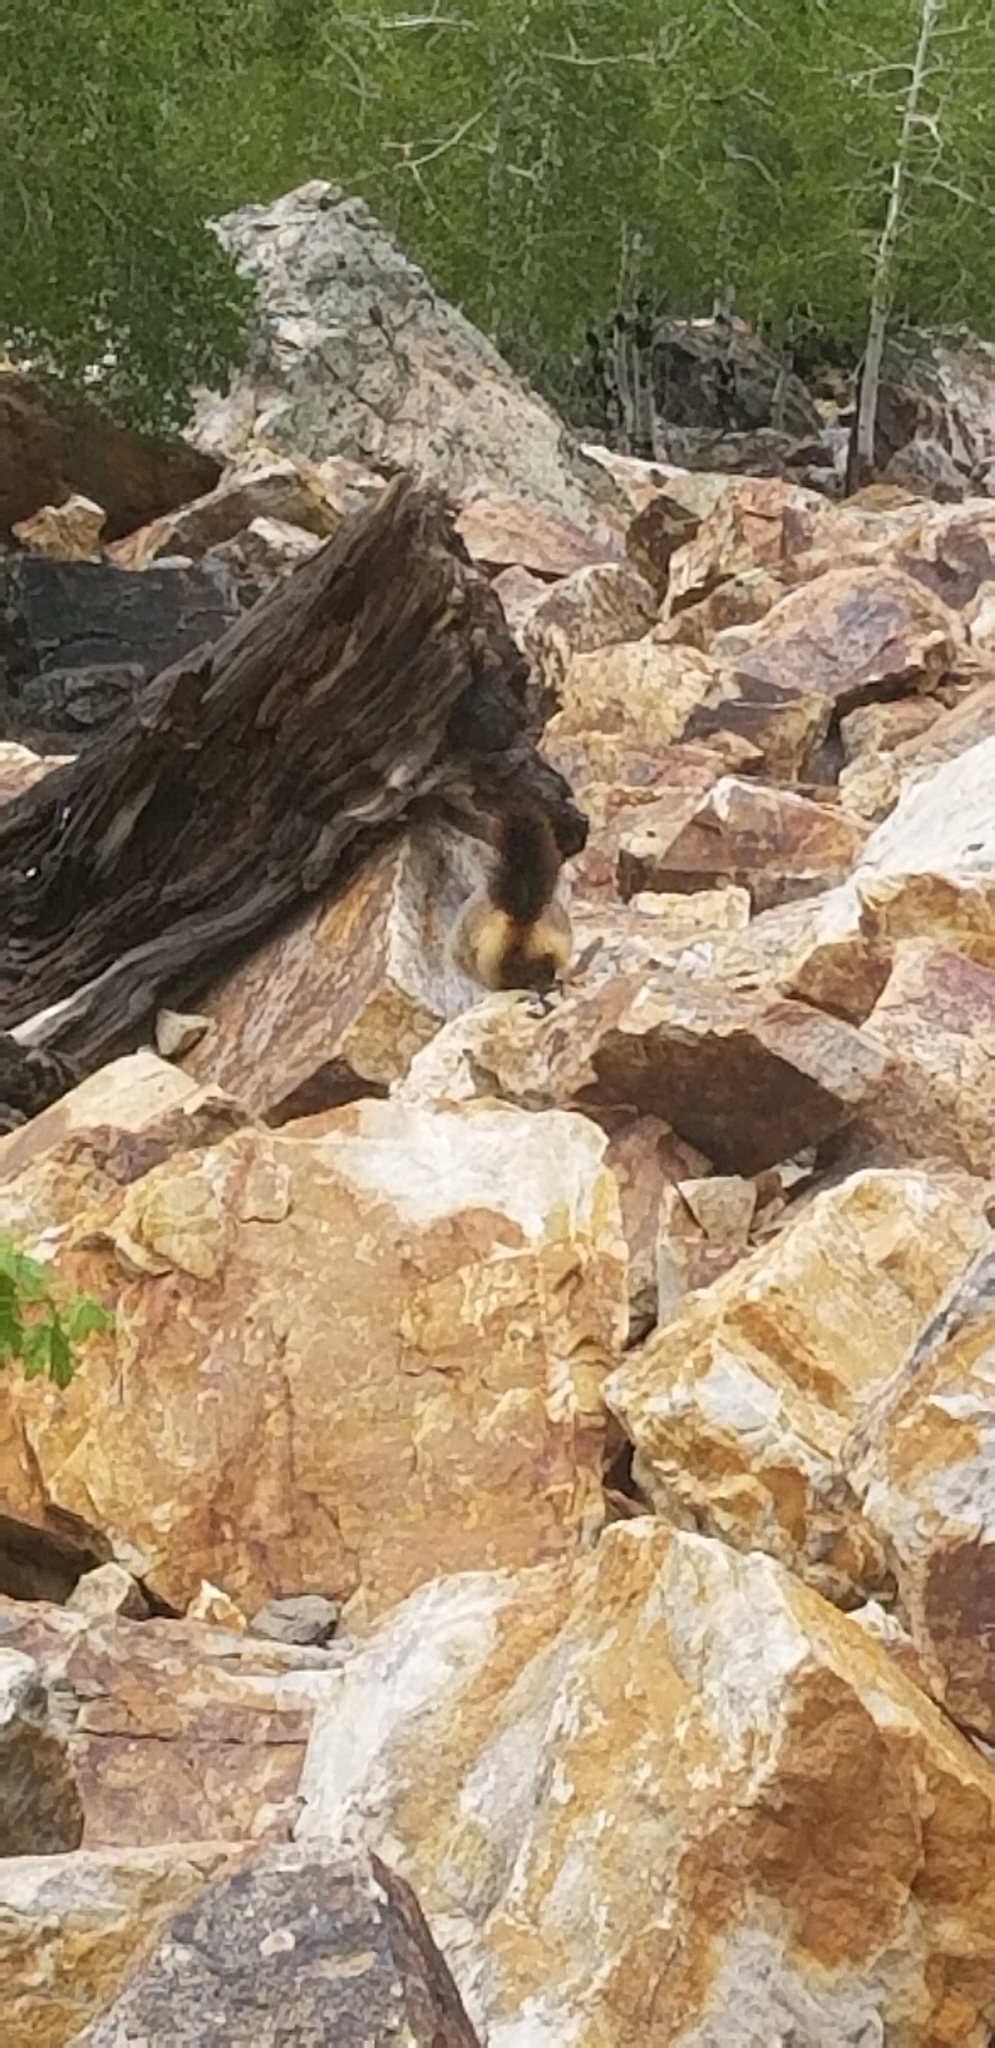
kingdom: Animalia
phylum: Chordata
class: Mammalia
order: Rodentia
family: Sciuridae
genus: Marmota
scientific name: Marmota flaviventris
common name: Yellow-bellied marmot
